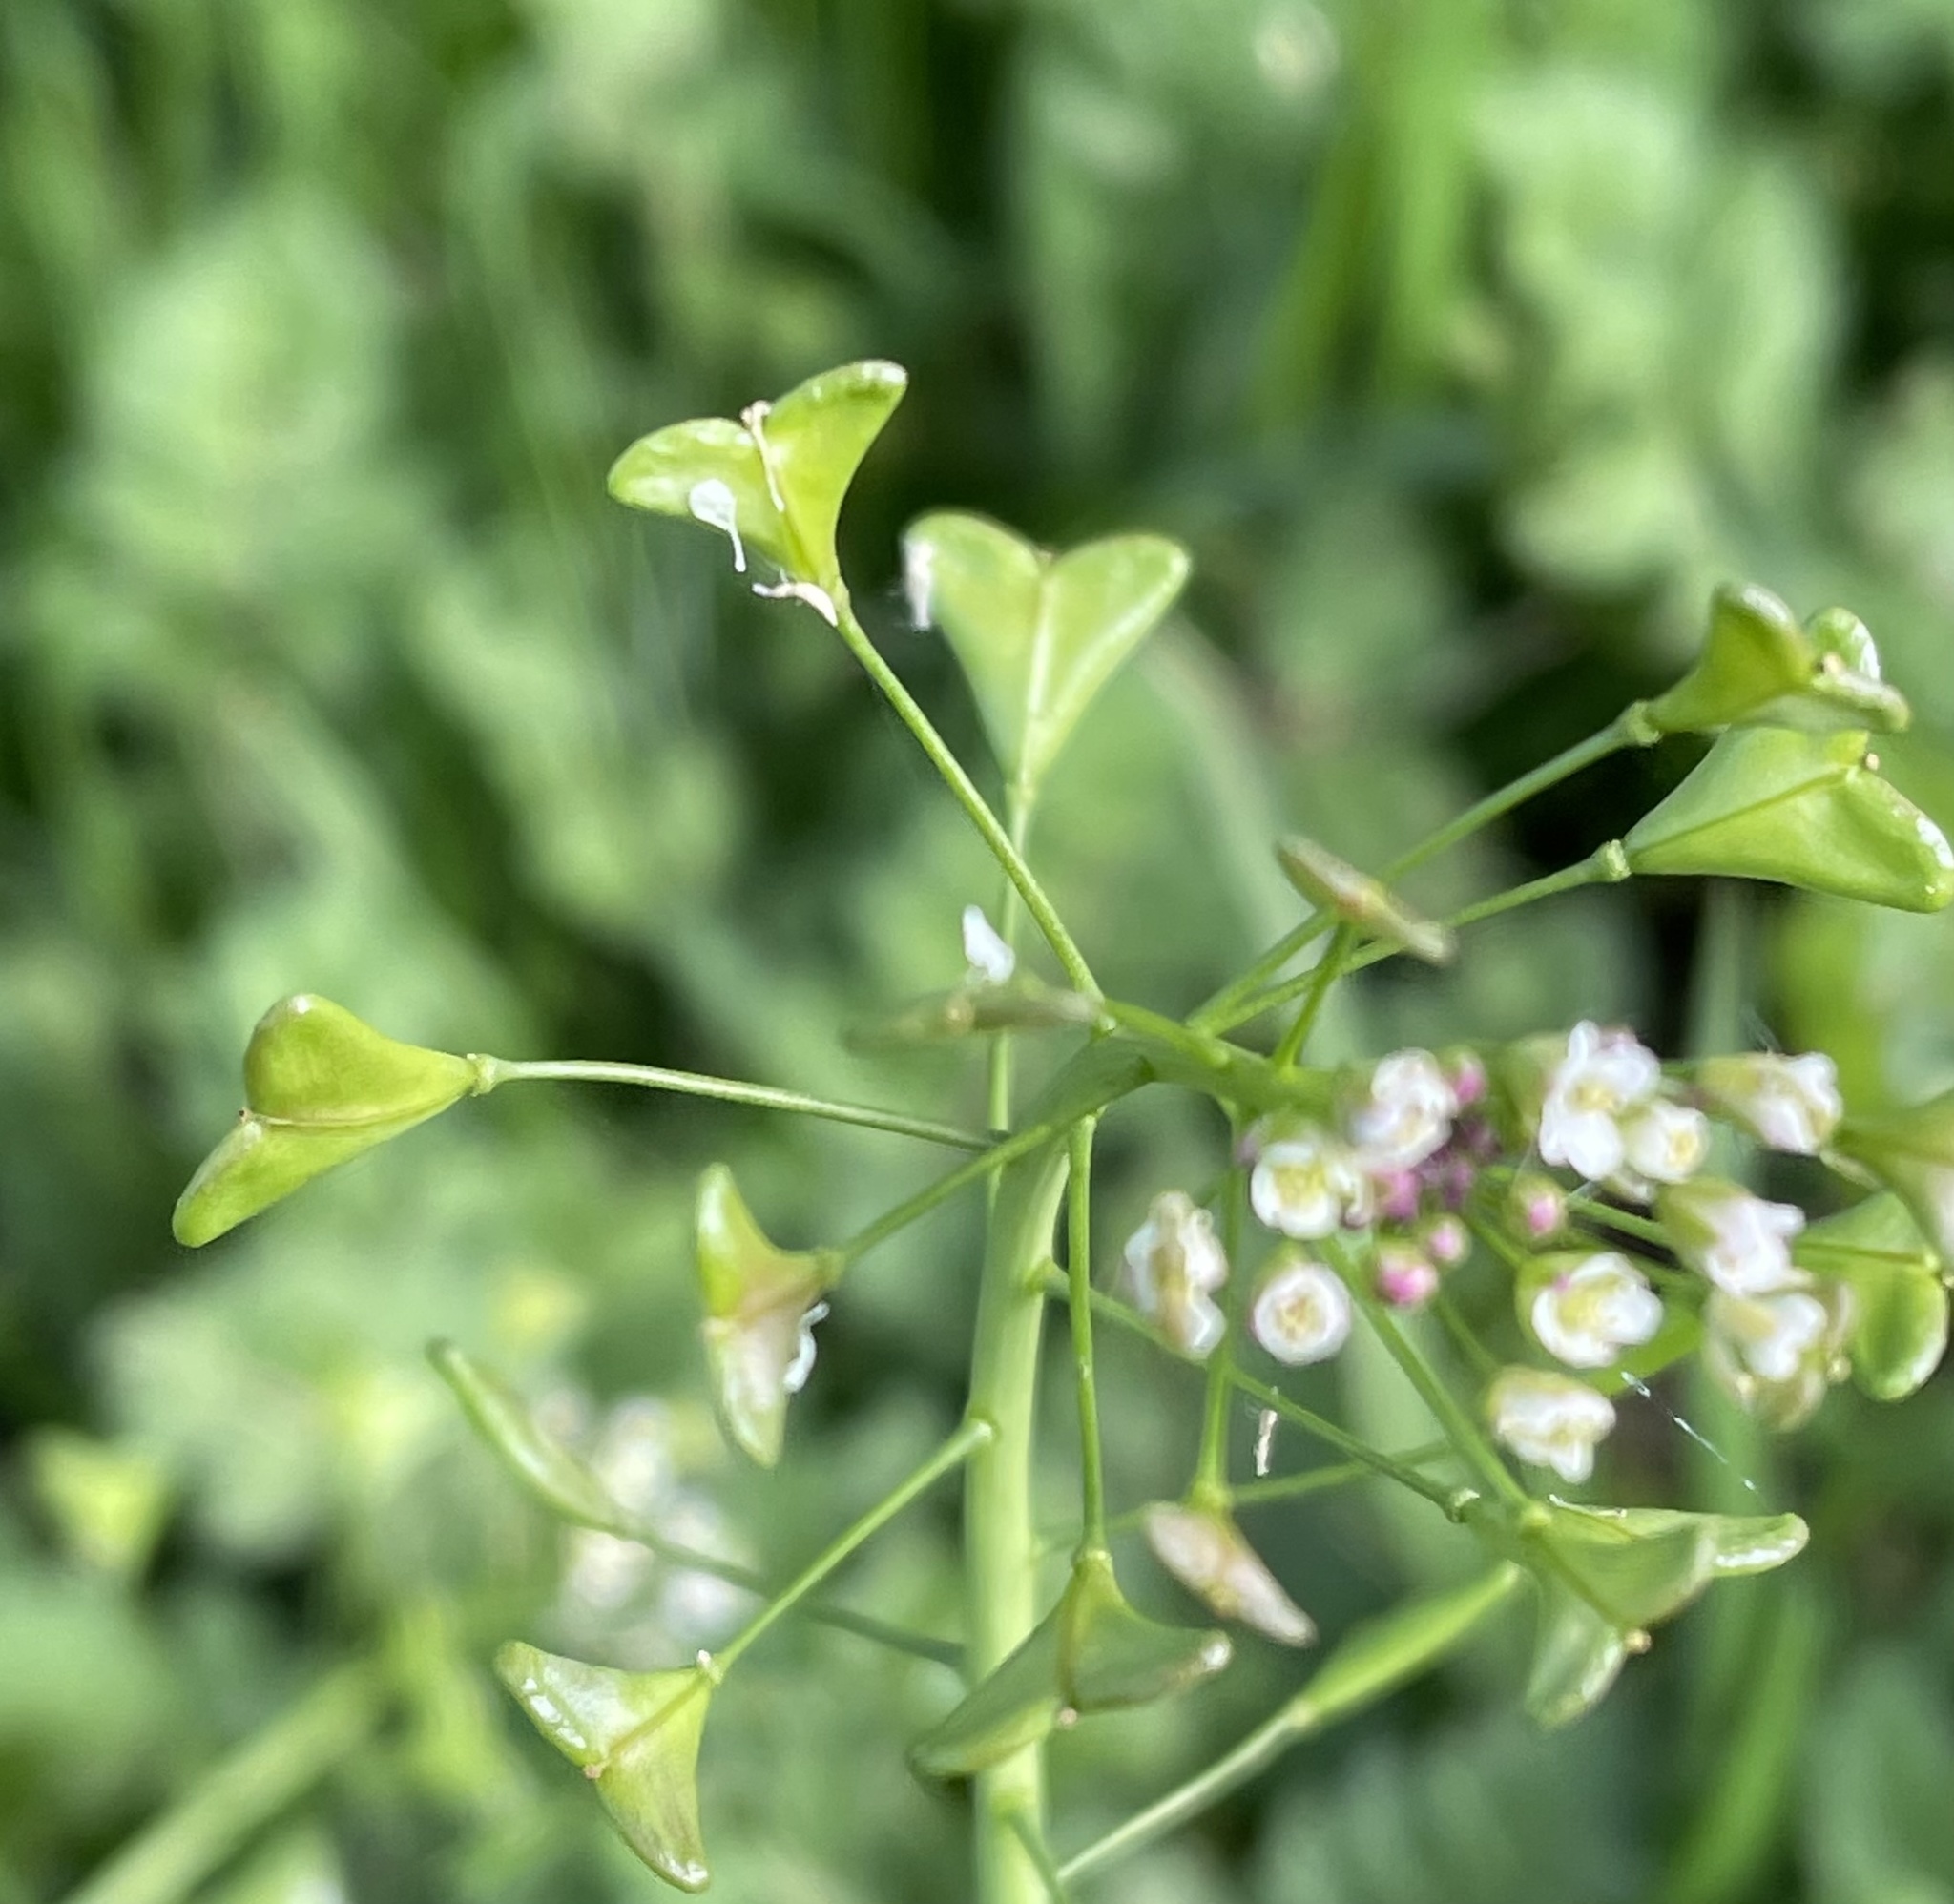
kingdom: Plantae
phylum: Tracheophyta
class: Magnoliopsida
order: Brassicales
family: Brassicaceae
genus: Capsella
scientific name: Capsella bursa-pastoris
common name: Shepherd's purse
